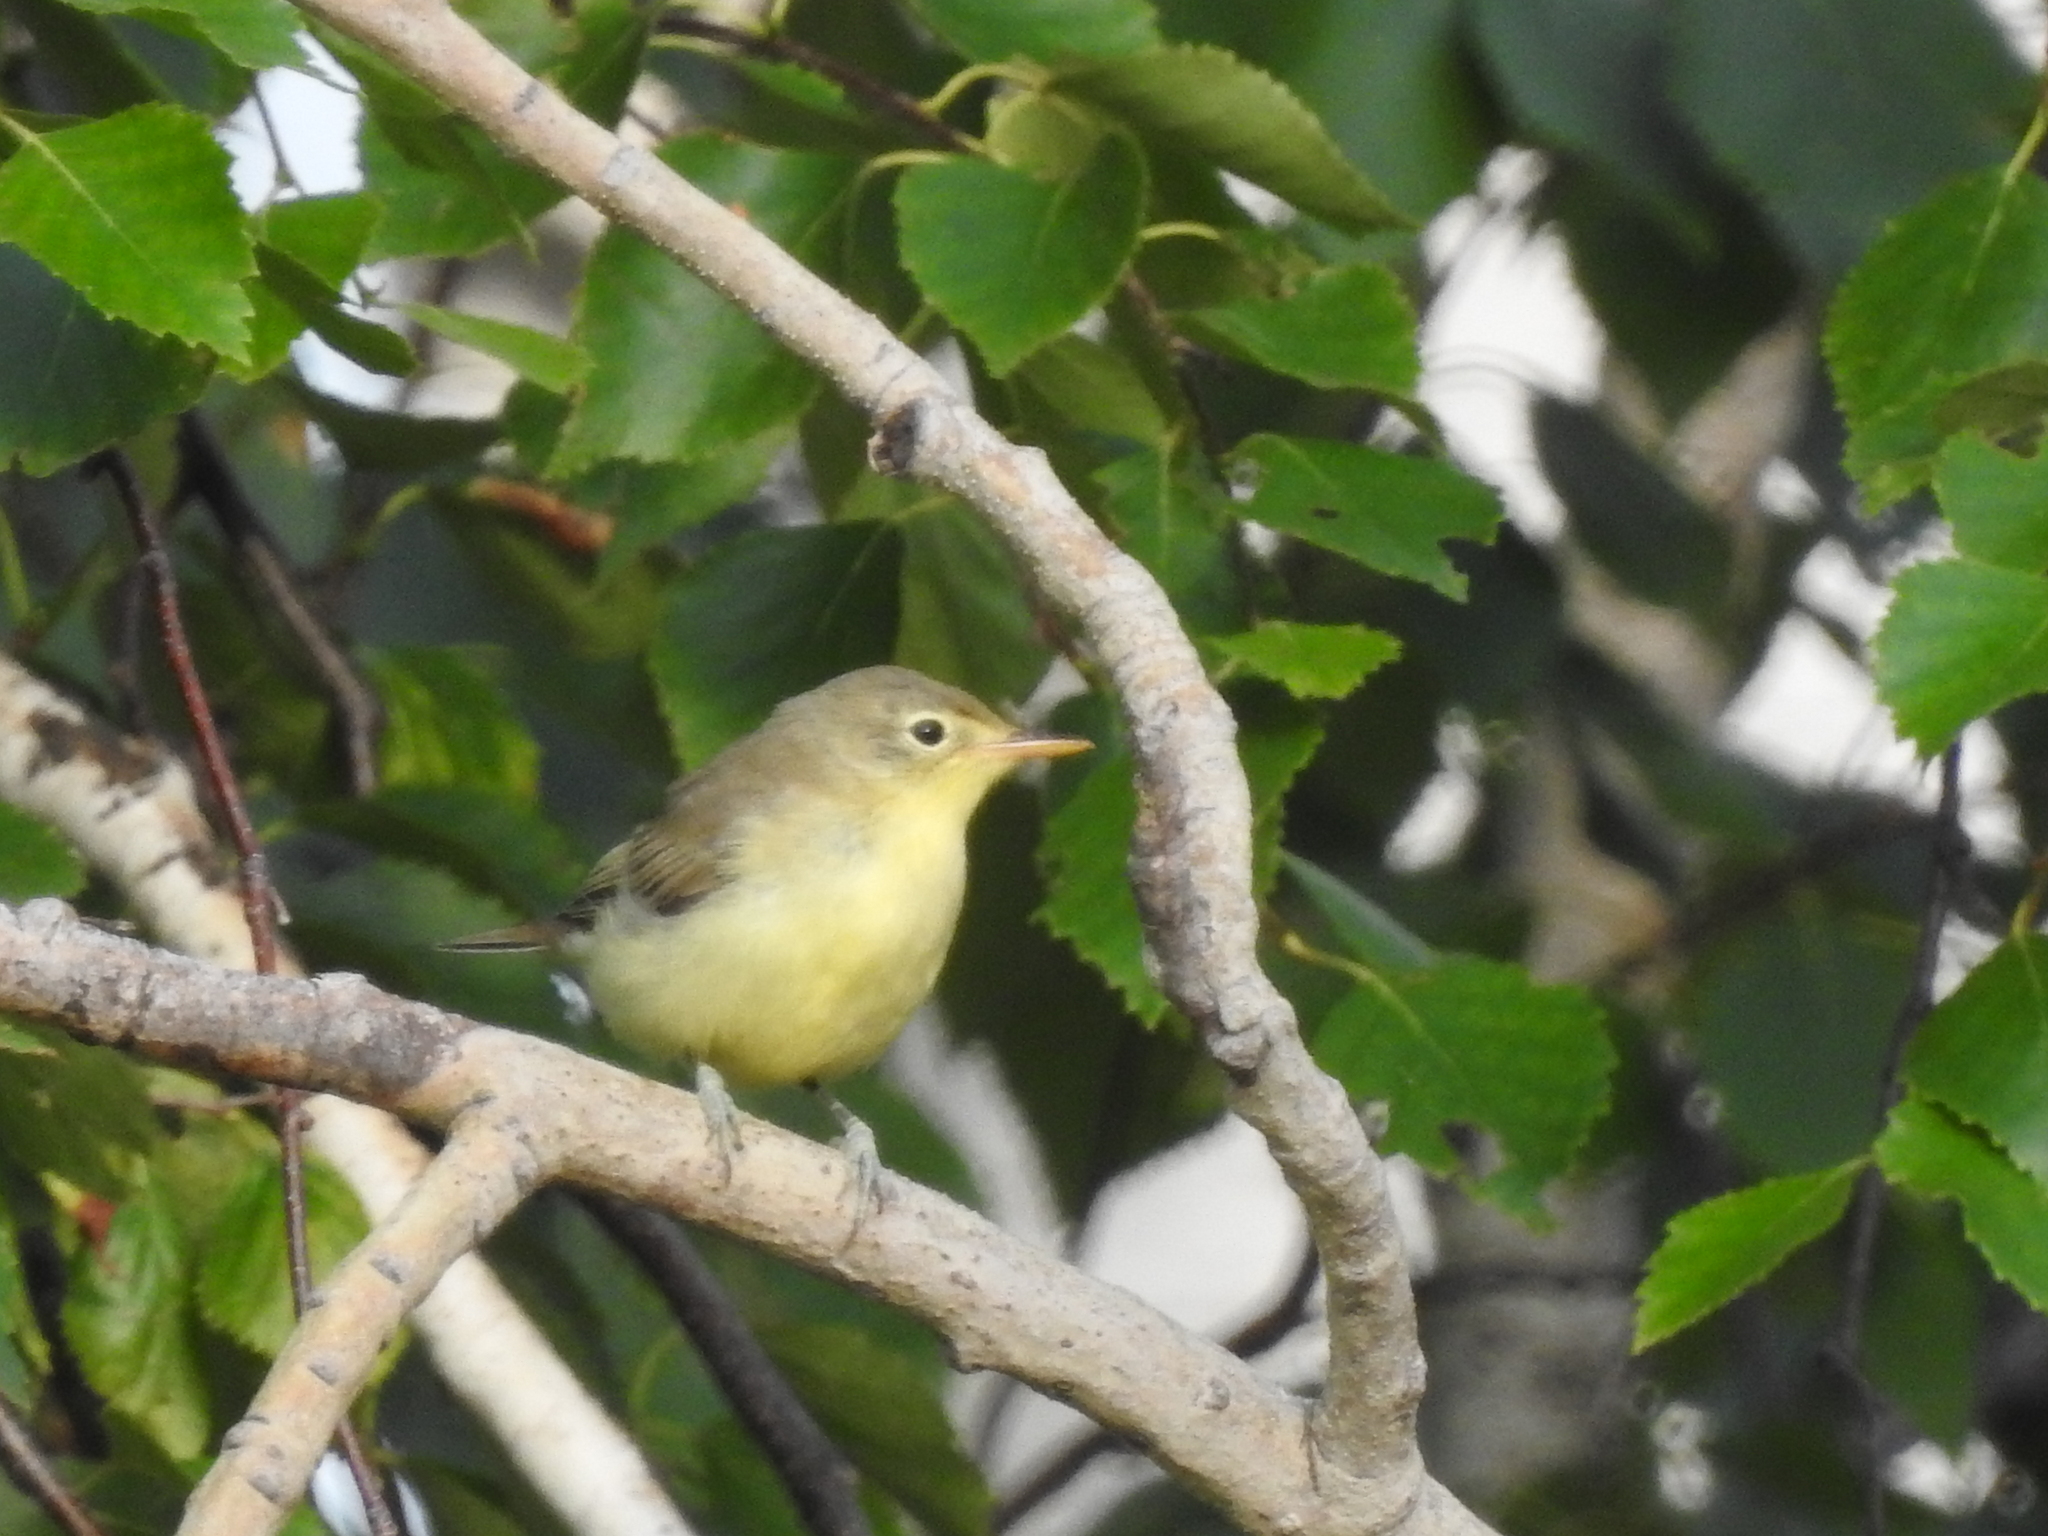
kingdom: Animalia
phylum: Chordata
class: Aves
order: Passeriformes
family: Acrocephalidae
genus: Hippolais
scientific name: Hippolais icterina
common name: Icterine warbler
